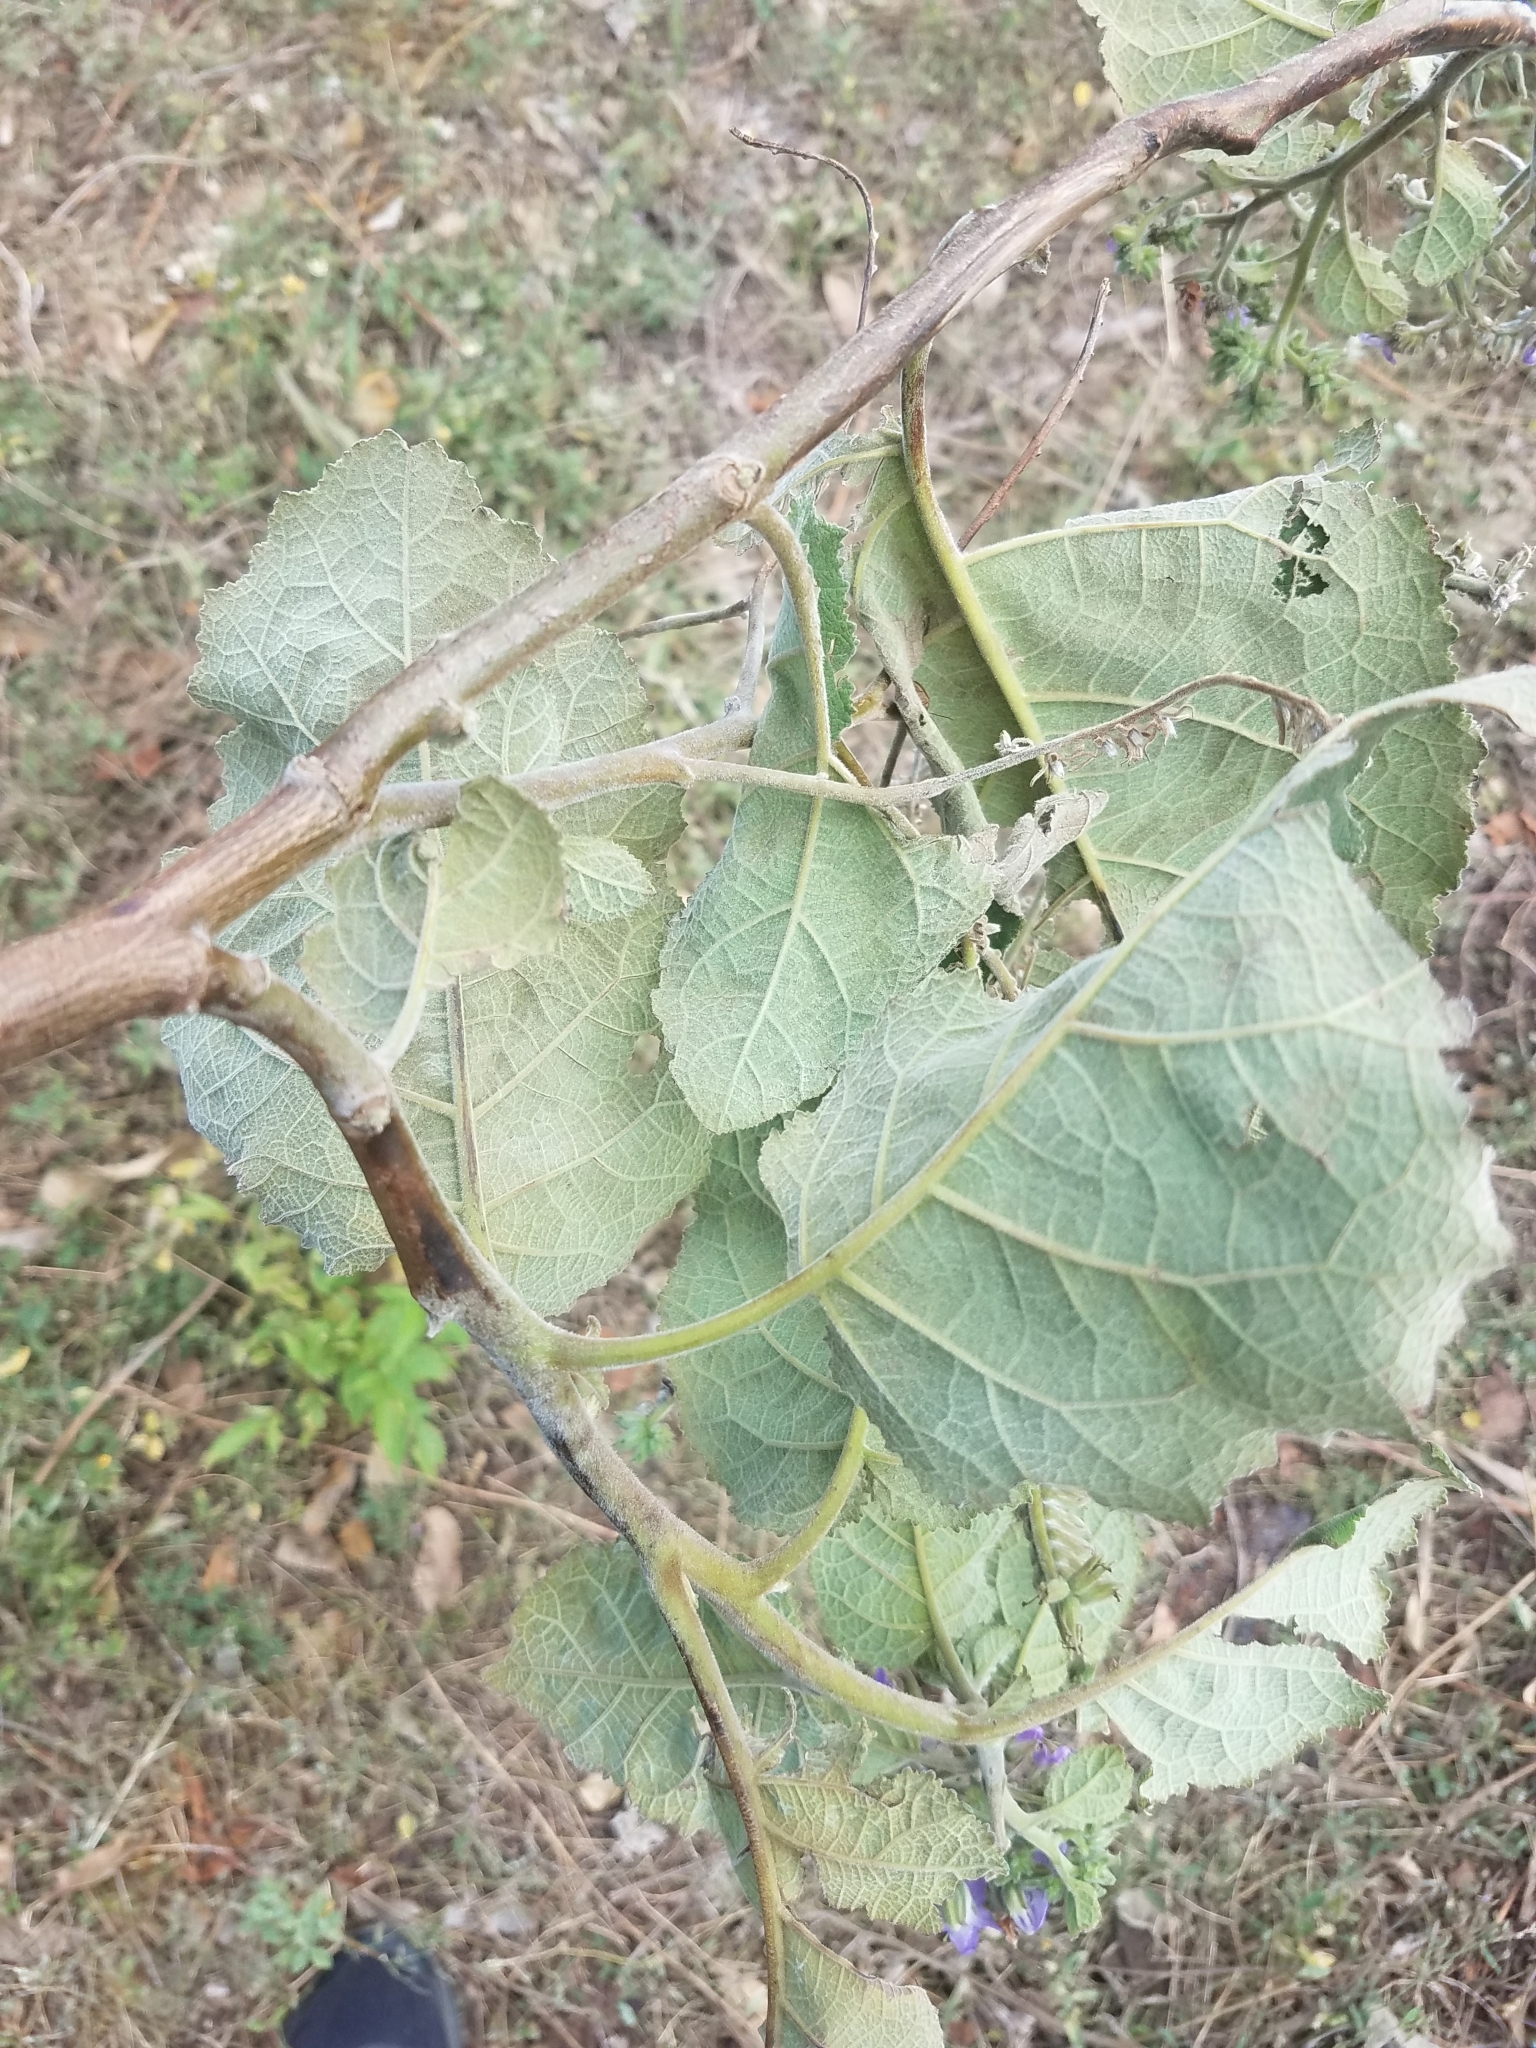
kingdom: Plantae
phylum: Tracheophyta
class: Magnoliopsida
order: Boraginales
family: Namaceae
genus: Wigandia
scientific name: Wigandia urens
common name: Caracus wigandia
